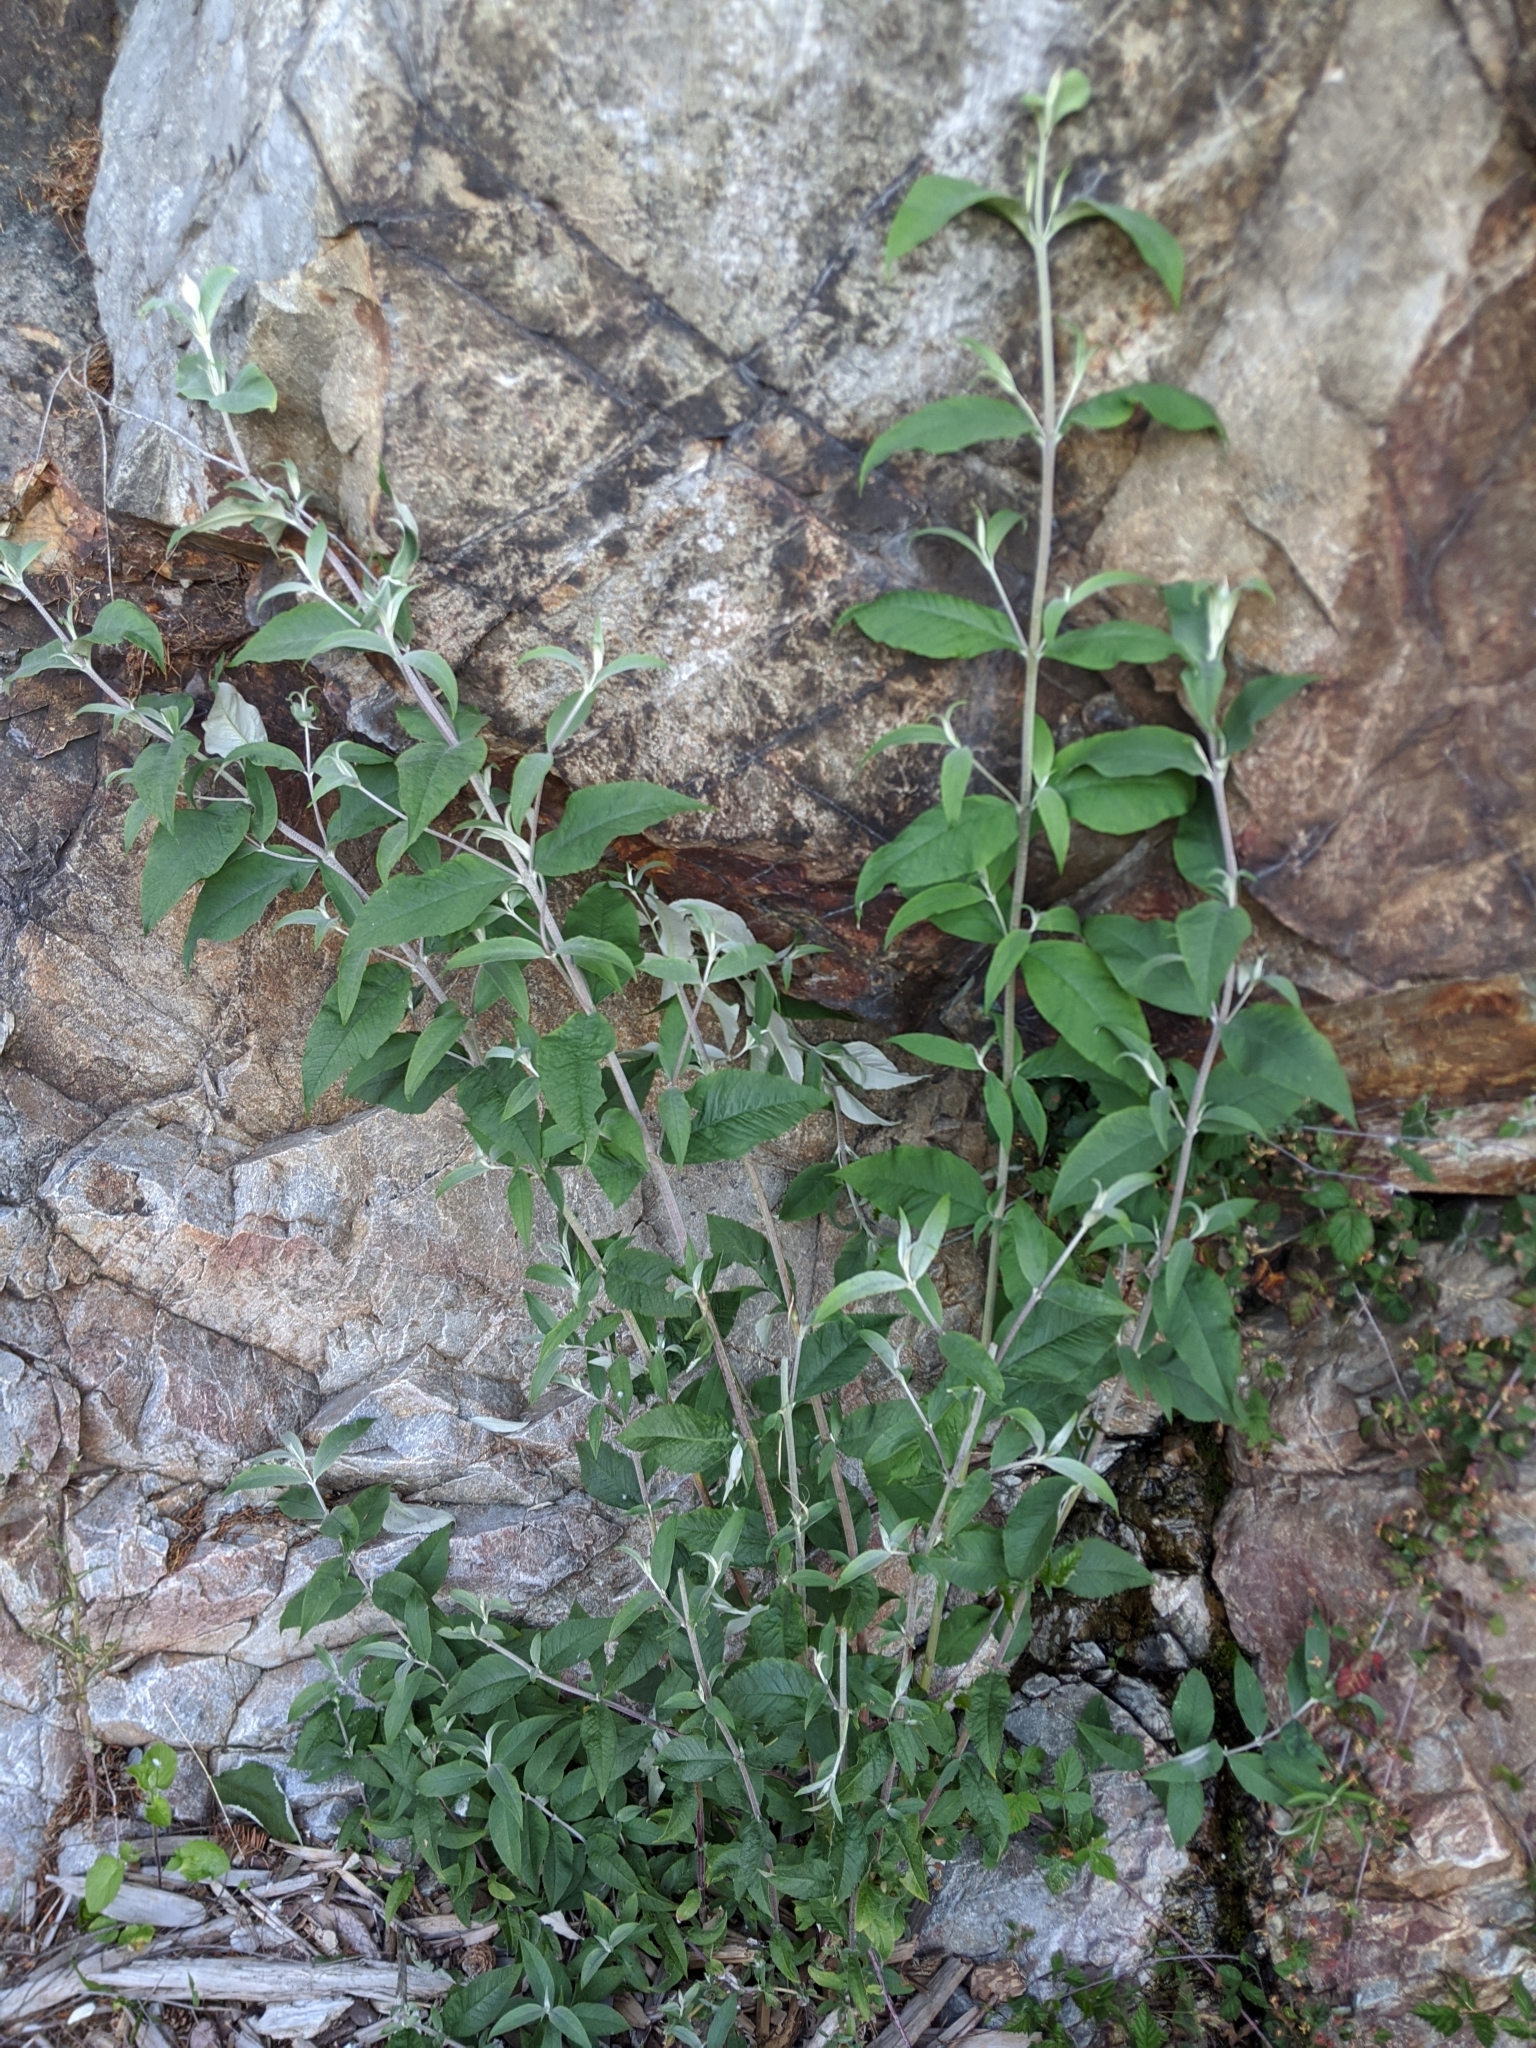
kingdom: Plantae
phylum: Tracheophyta
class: Magnoliopsida
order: Lamiales
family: Scrophulariaceae
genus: Buddleja
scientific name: Buddleja davidii
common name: Butterfly-bush
